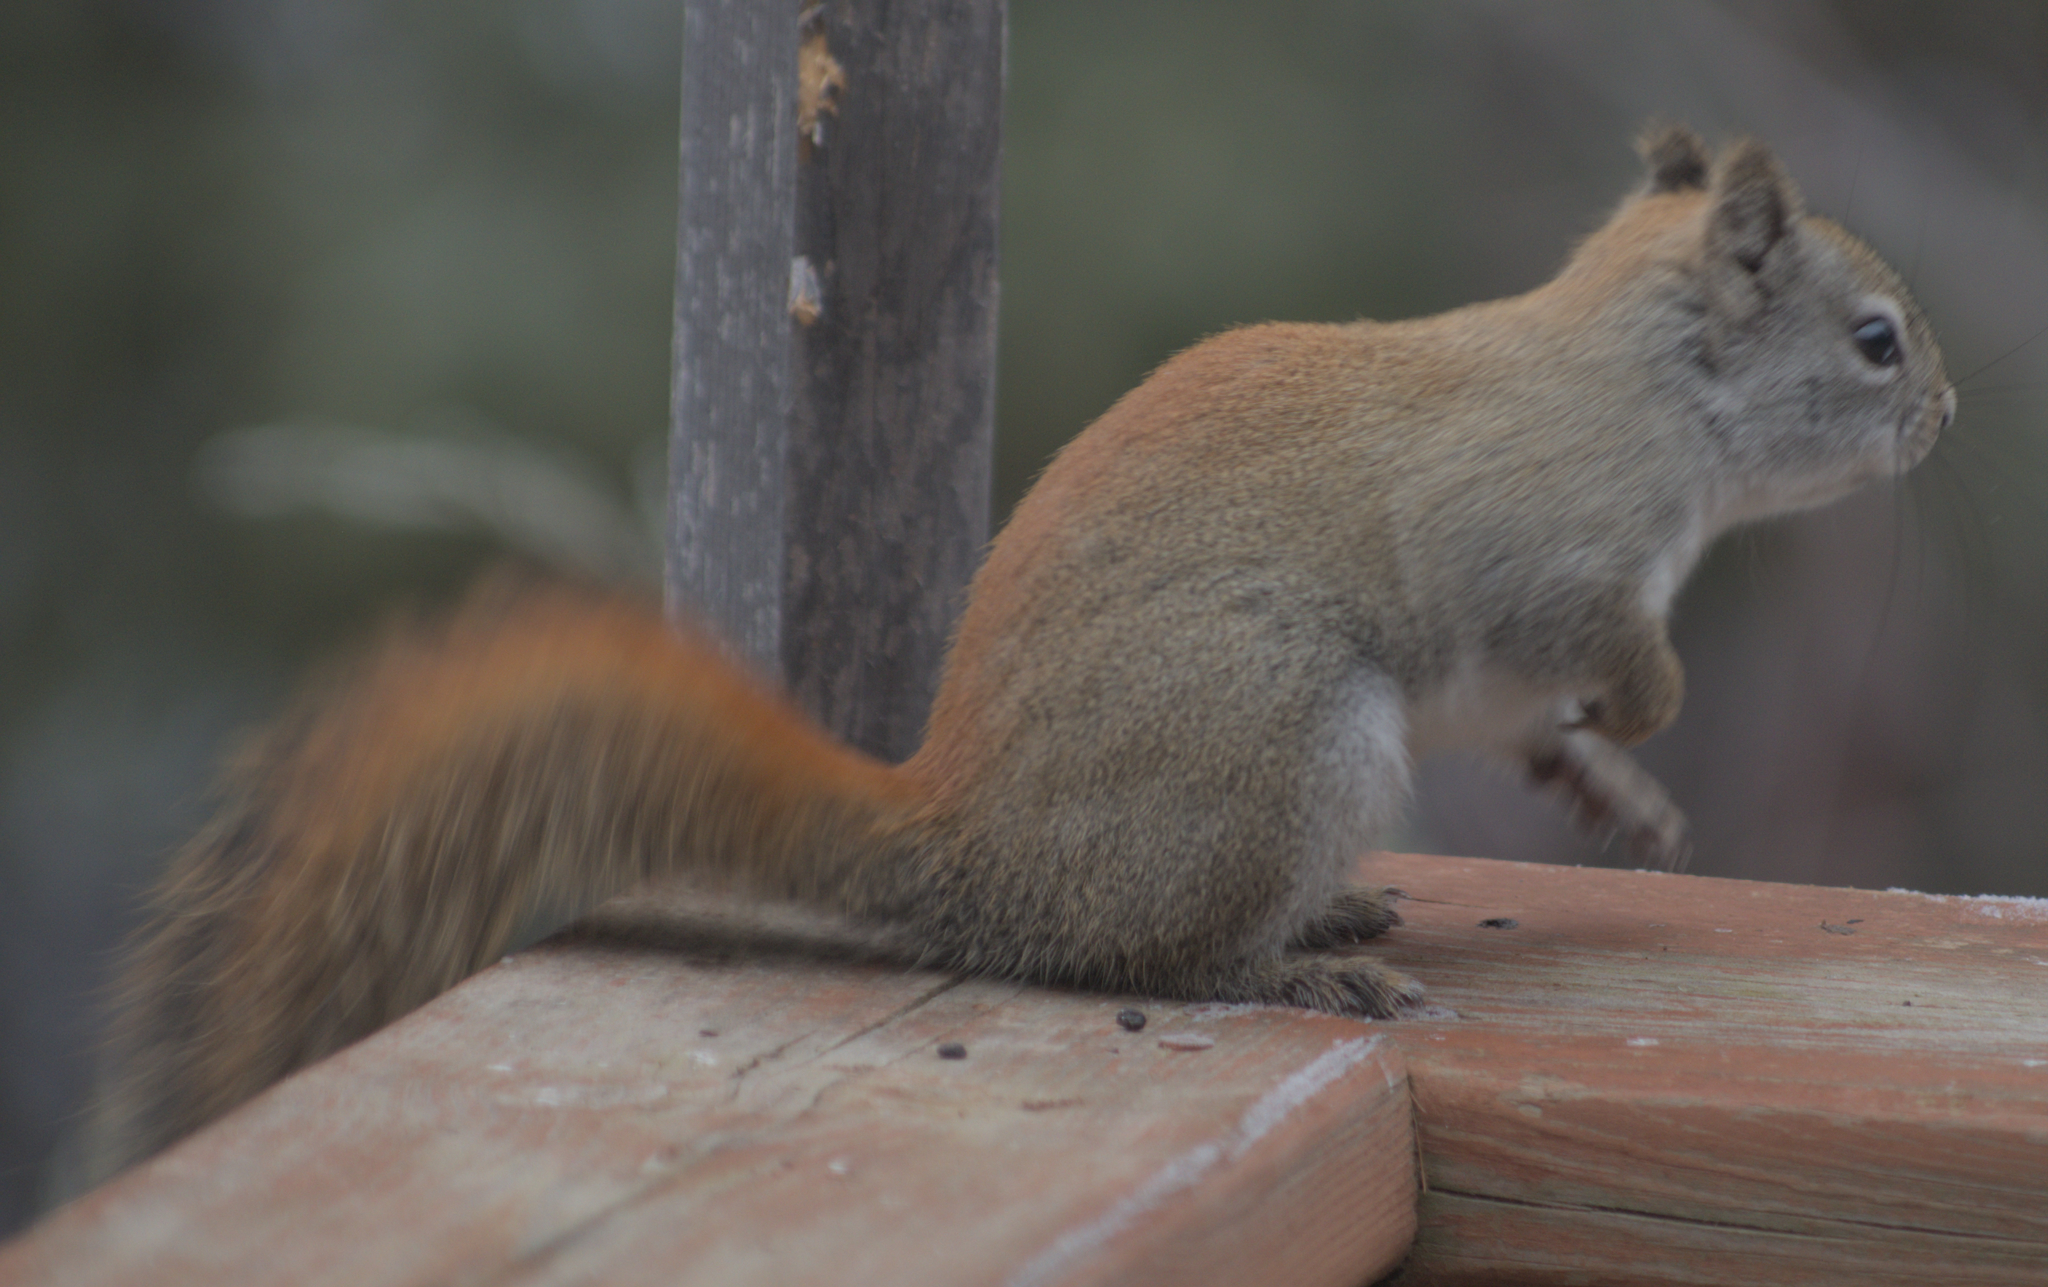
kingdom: Animalia
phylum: Chordata
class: Mammalia
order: Rodentia
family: Sciuridae
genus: Tamiasciurus
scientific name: Tamiasciurus hudsonicus
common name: Red squirrel
